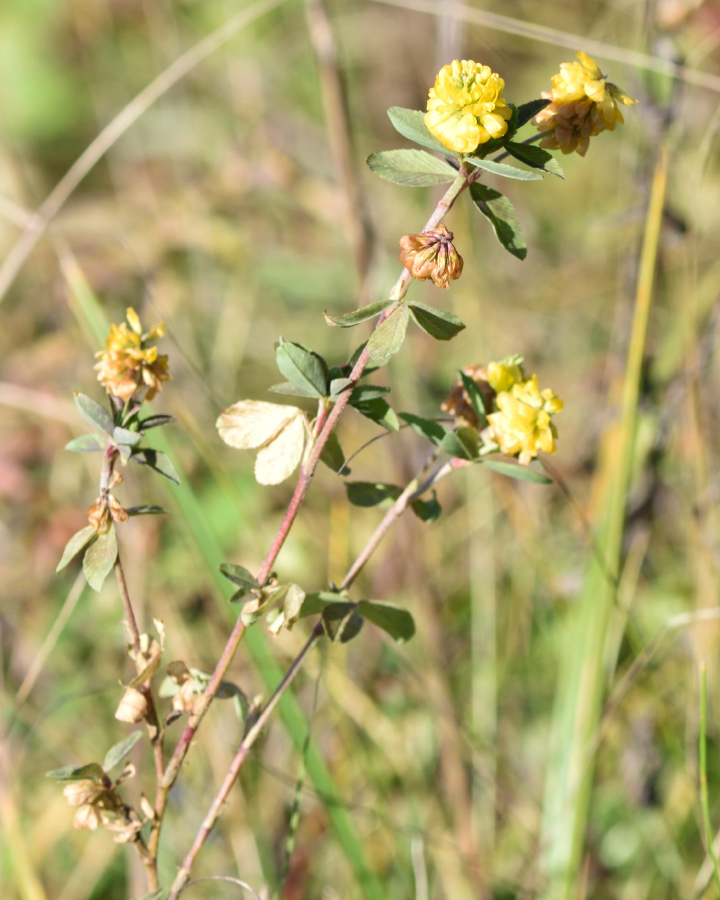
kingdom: Plantae
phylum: Tracheophyta
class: Magnoliopsida
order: Fabales
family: Fabaceae
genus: Trifolium
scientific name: Trifolium aureum
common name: Golden clover
